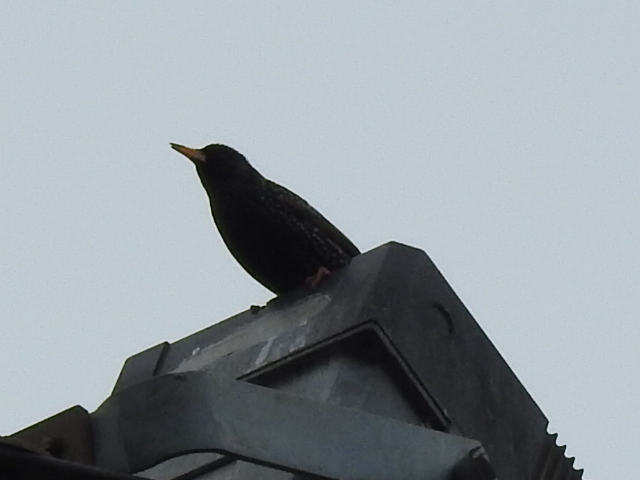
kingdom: Animalia
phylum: Chordata
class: Aves
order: Passeriformes
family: Sturnidae
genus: Sturnus
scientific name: Sturnus vulgaris
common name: Common starling
